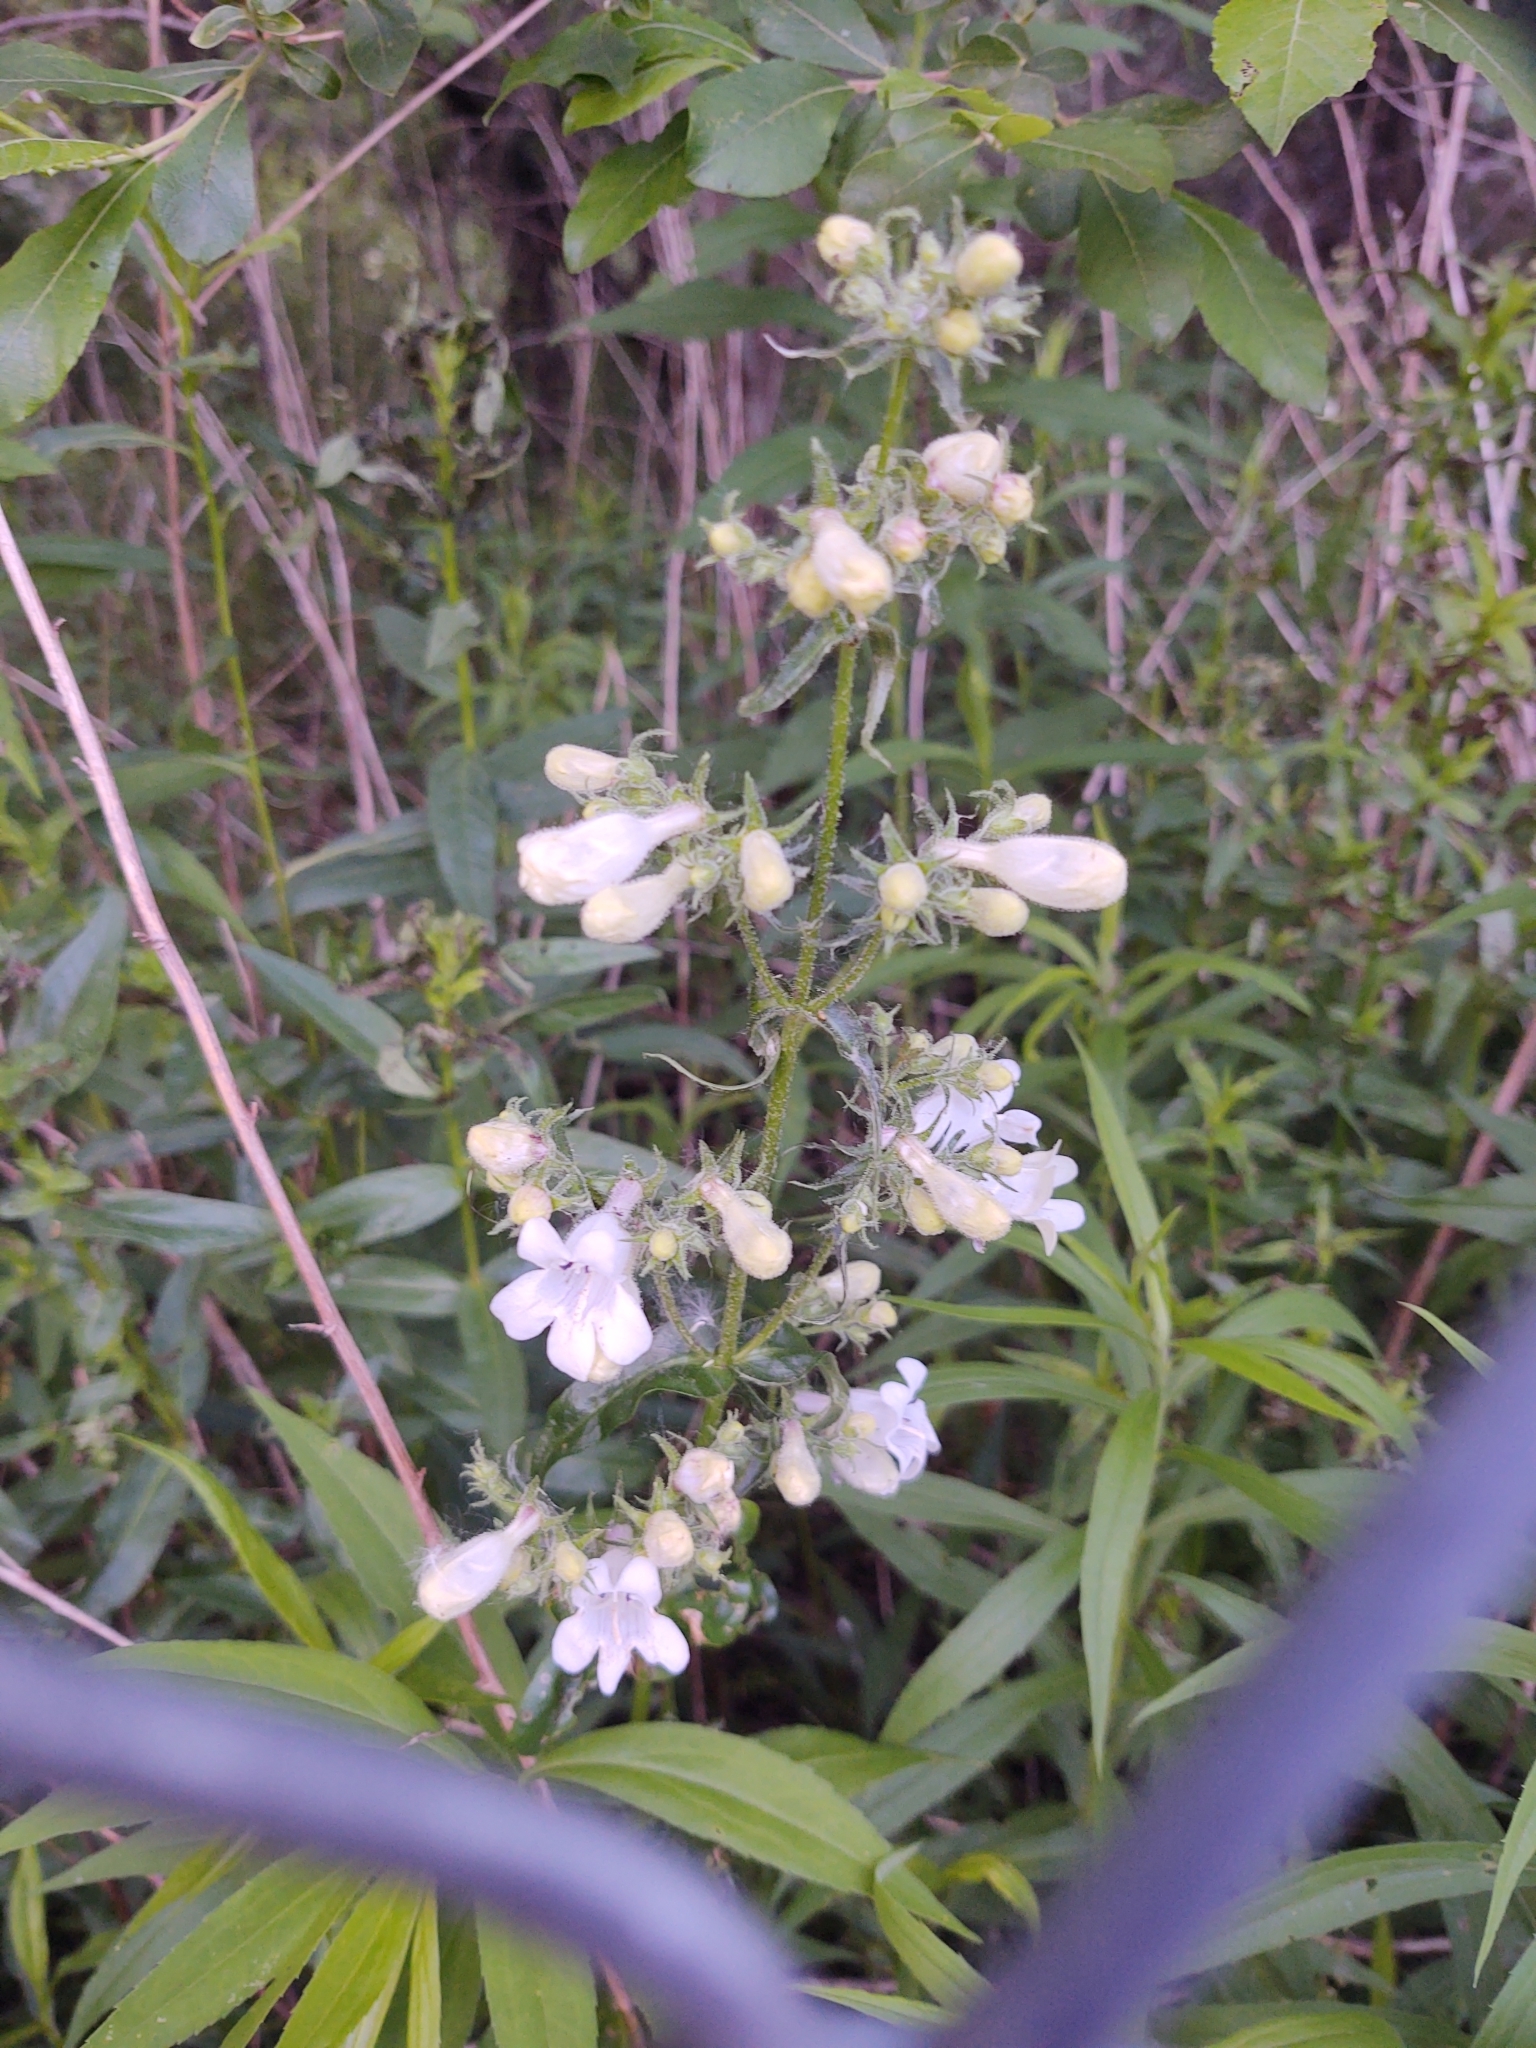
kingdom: Plantae
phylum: Tracheophyta
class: Magnoliopsida
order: Lamiales
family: Plantaginaceae
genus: Penstemon
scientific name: Penstemon digitalis
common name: Foxglove beardtongue
